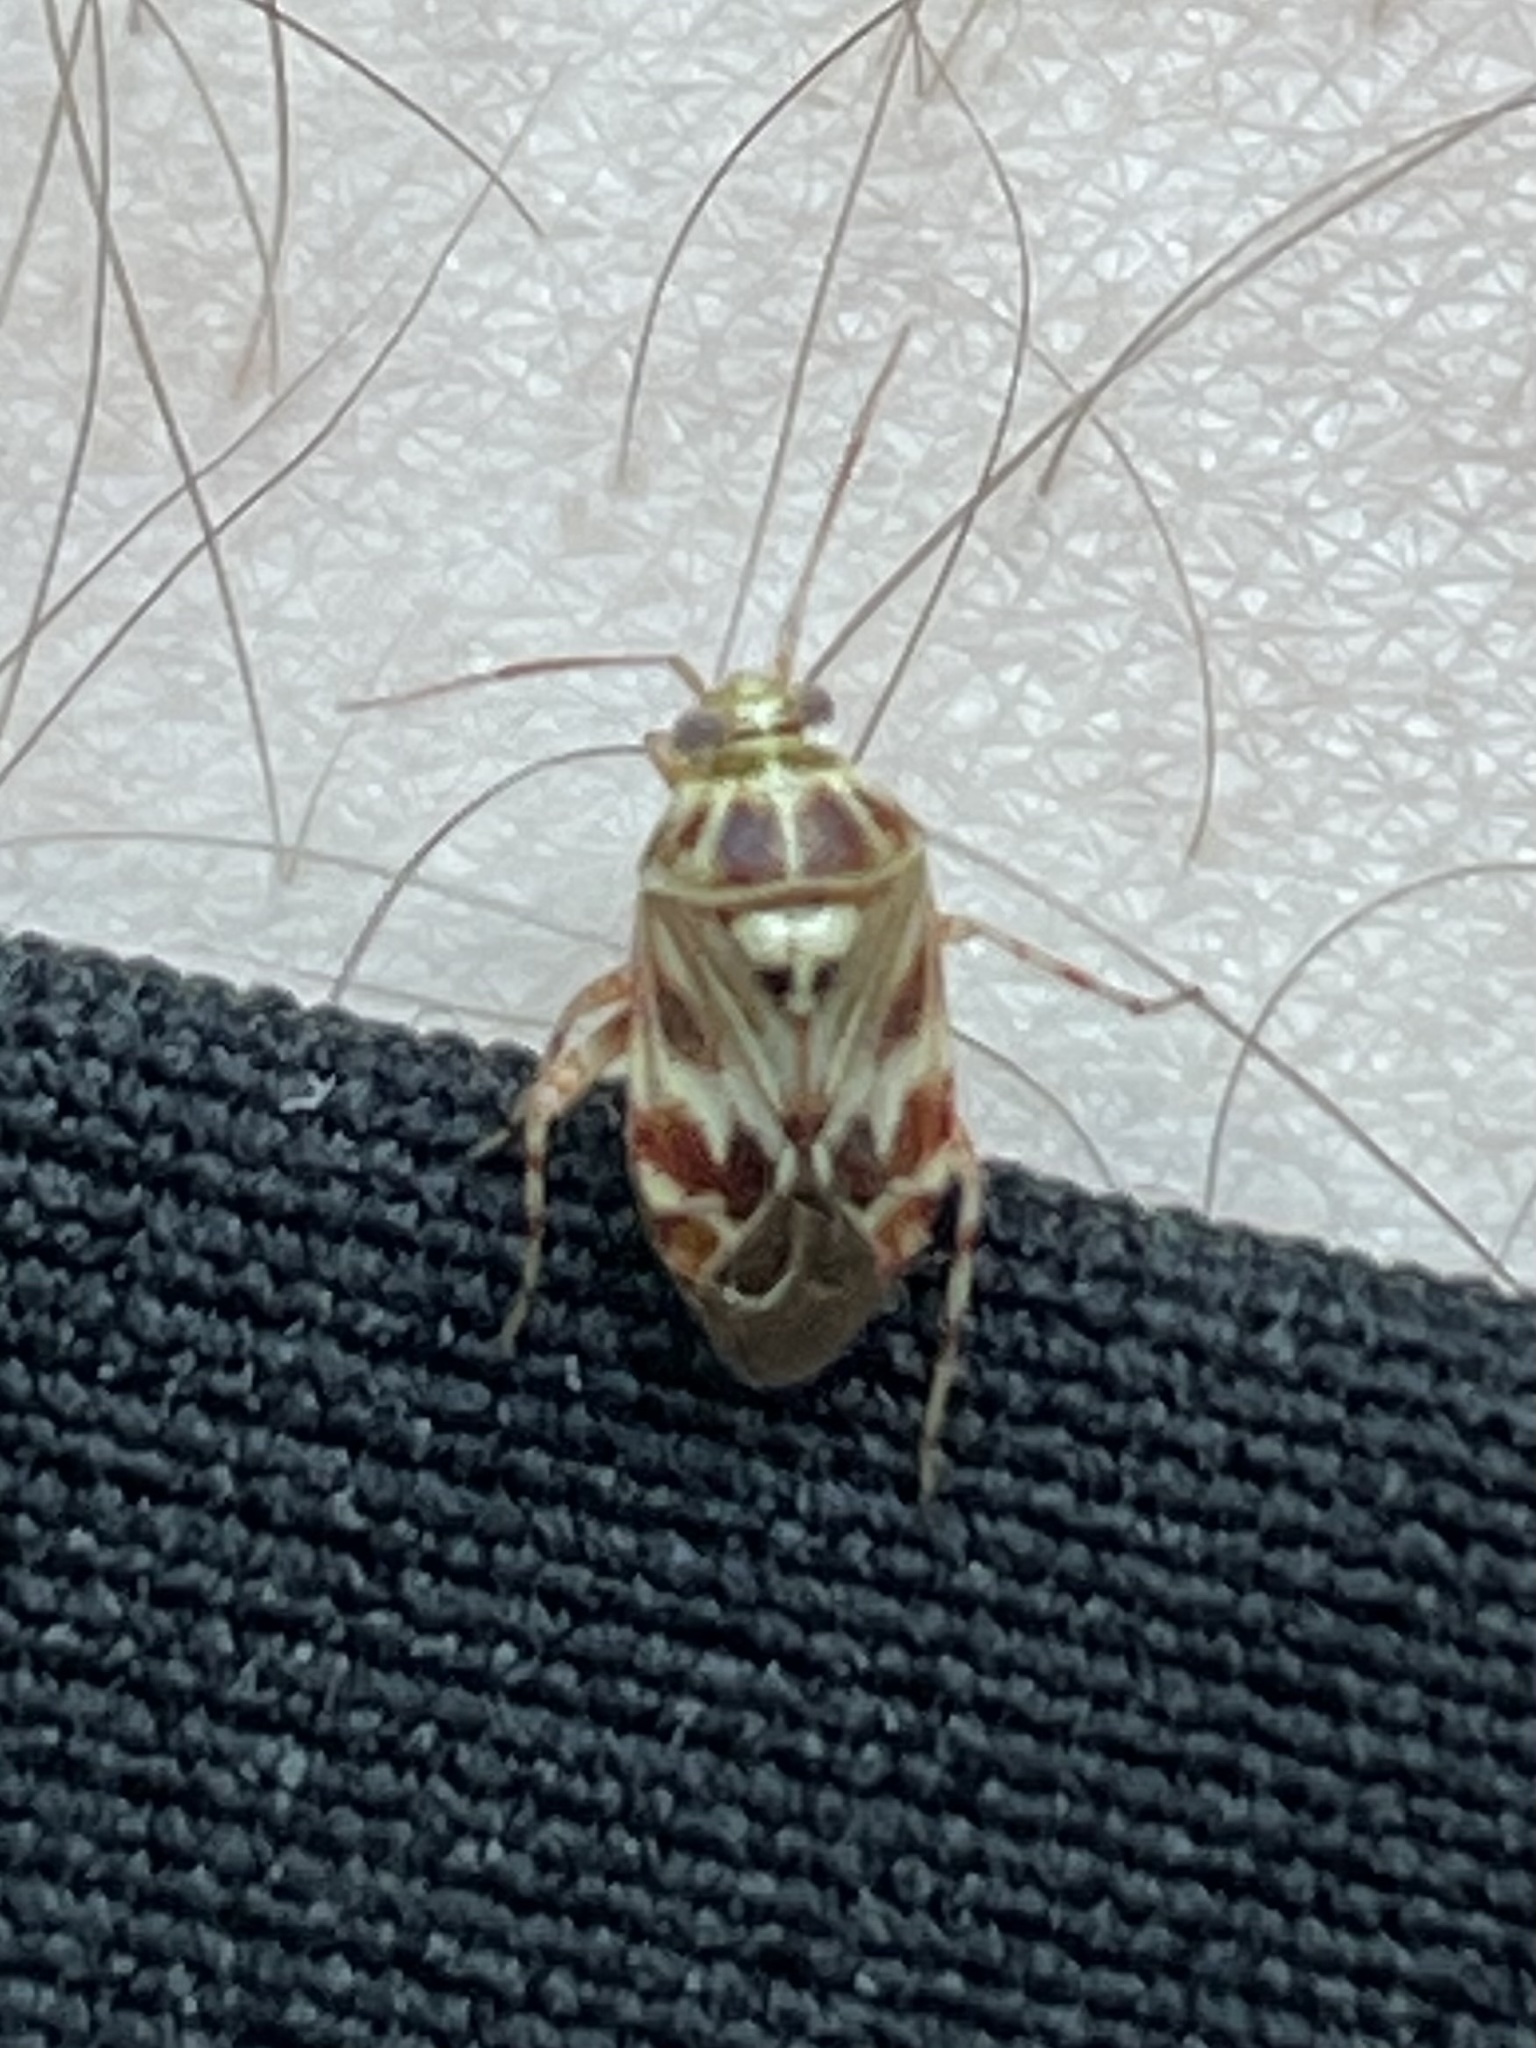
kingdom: Animalia
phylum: Arthropoda
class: Insecta
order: Hemiptera
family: Miridae
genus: Tropidosteptes
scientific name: Tropidosteptes quercicola
